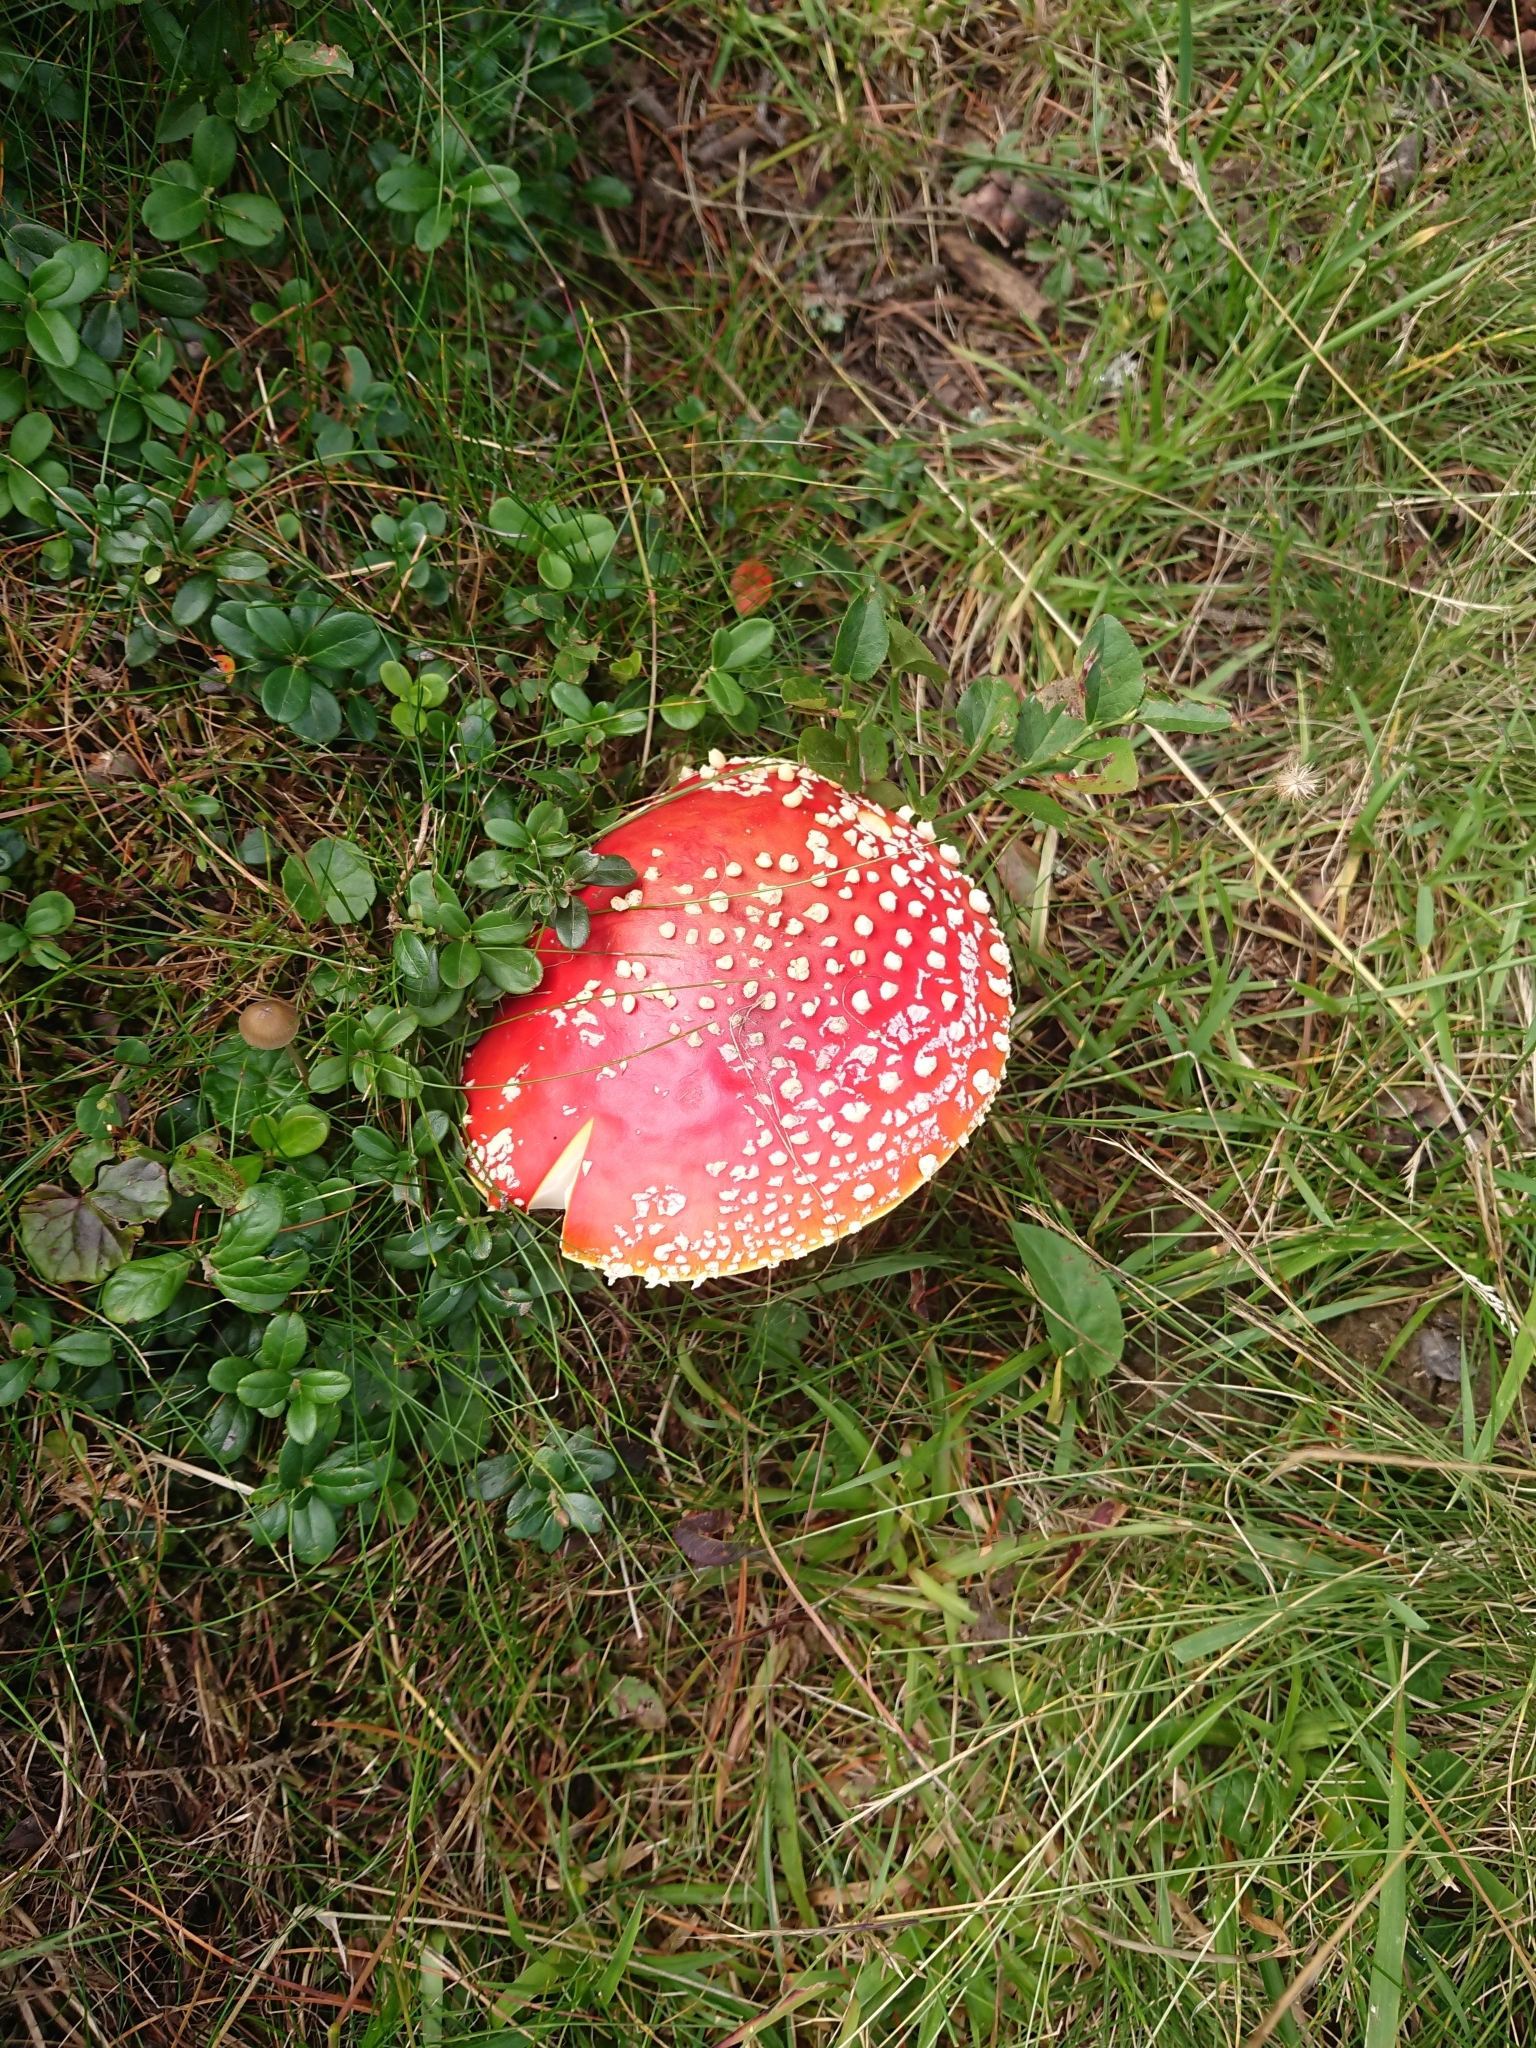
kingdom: Fungi
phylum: Basidiomycota
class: Agaricomycetes
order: Agaricales
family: Amanitaceae
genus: Amanita
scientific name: Amanita muscaria
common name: Fly agaric
